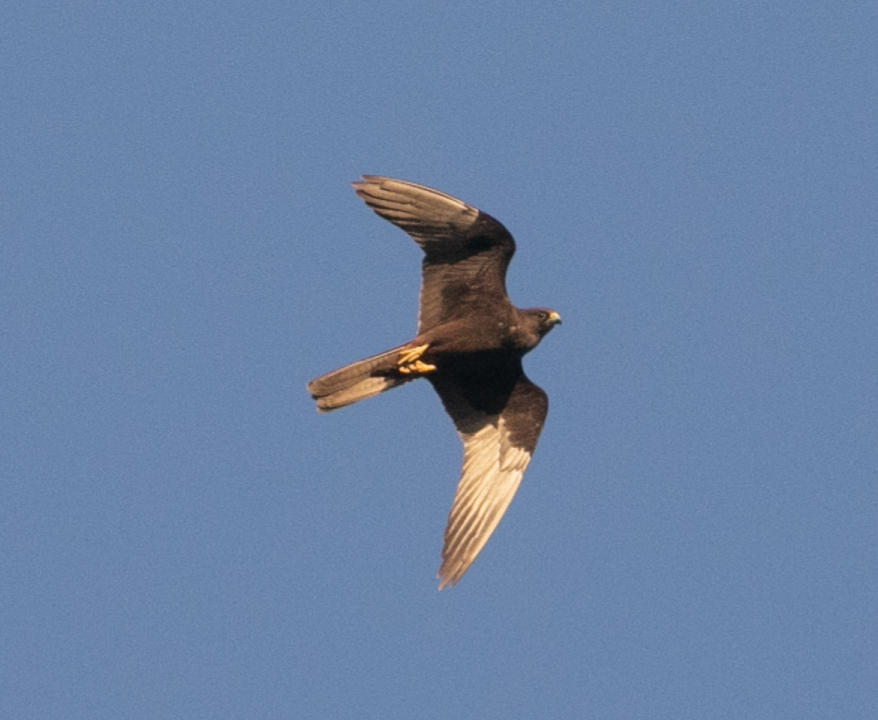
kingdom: Animalia
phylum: Chordata
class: Aves
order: Falconiformes
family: Falconidae
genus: Falco
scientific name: Falco eleonorae
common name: Eleonora's falcon
